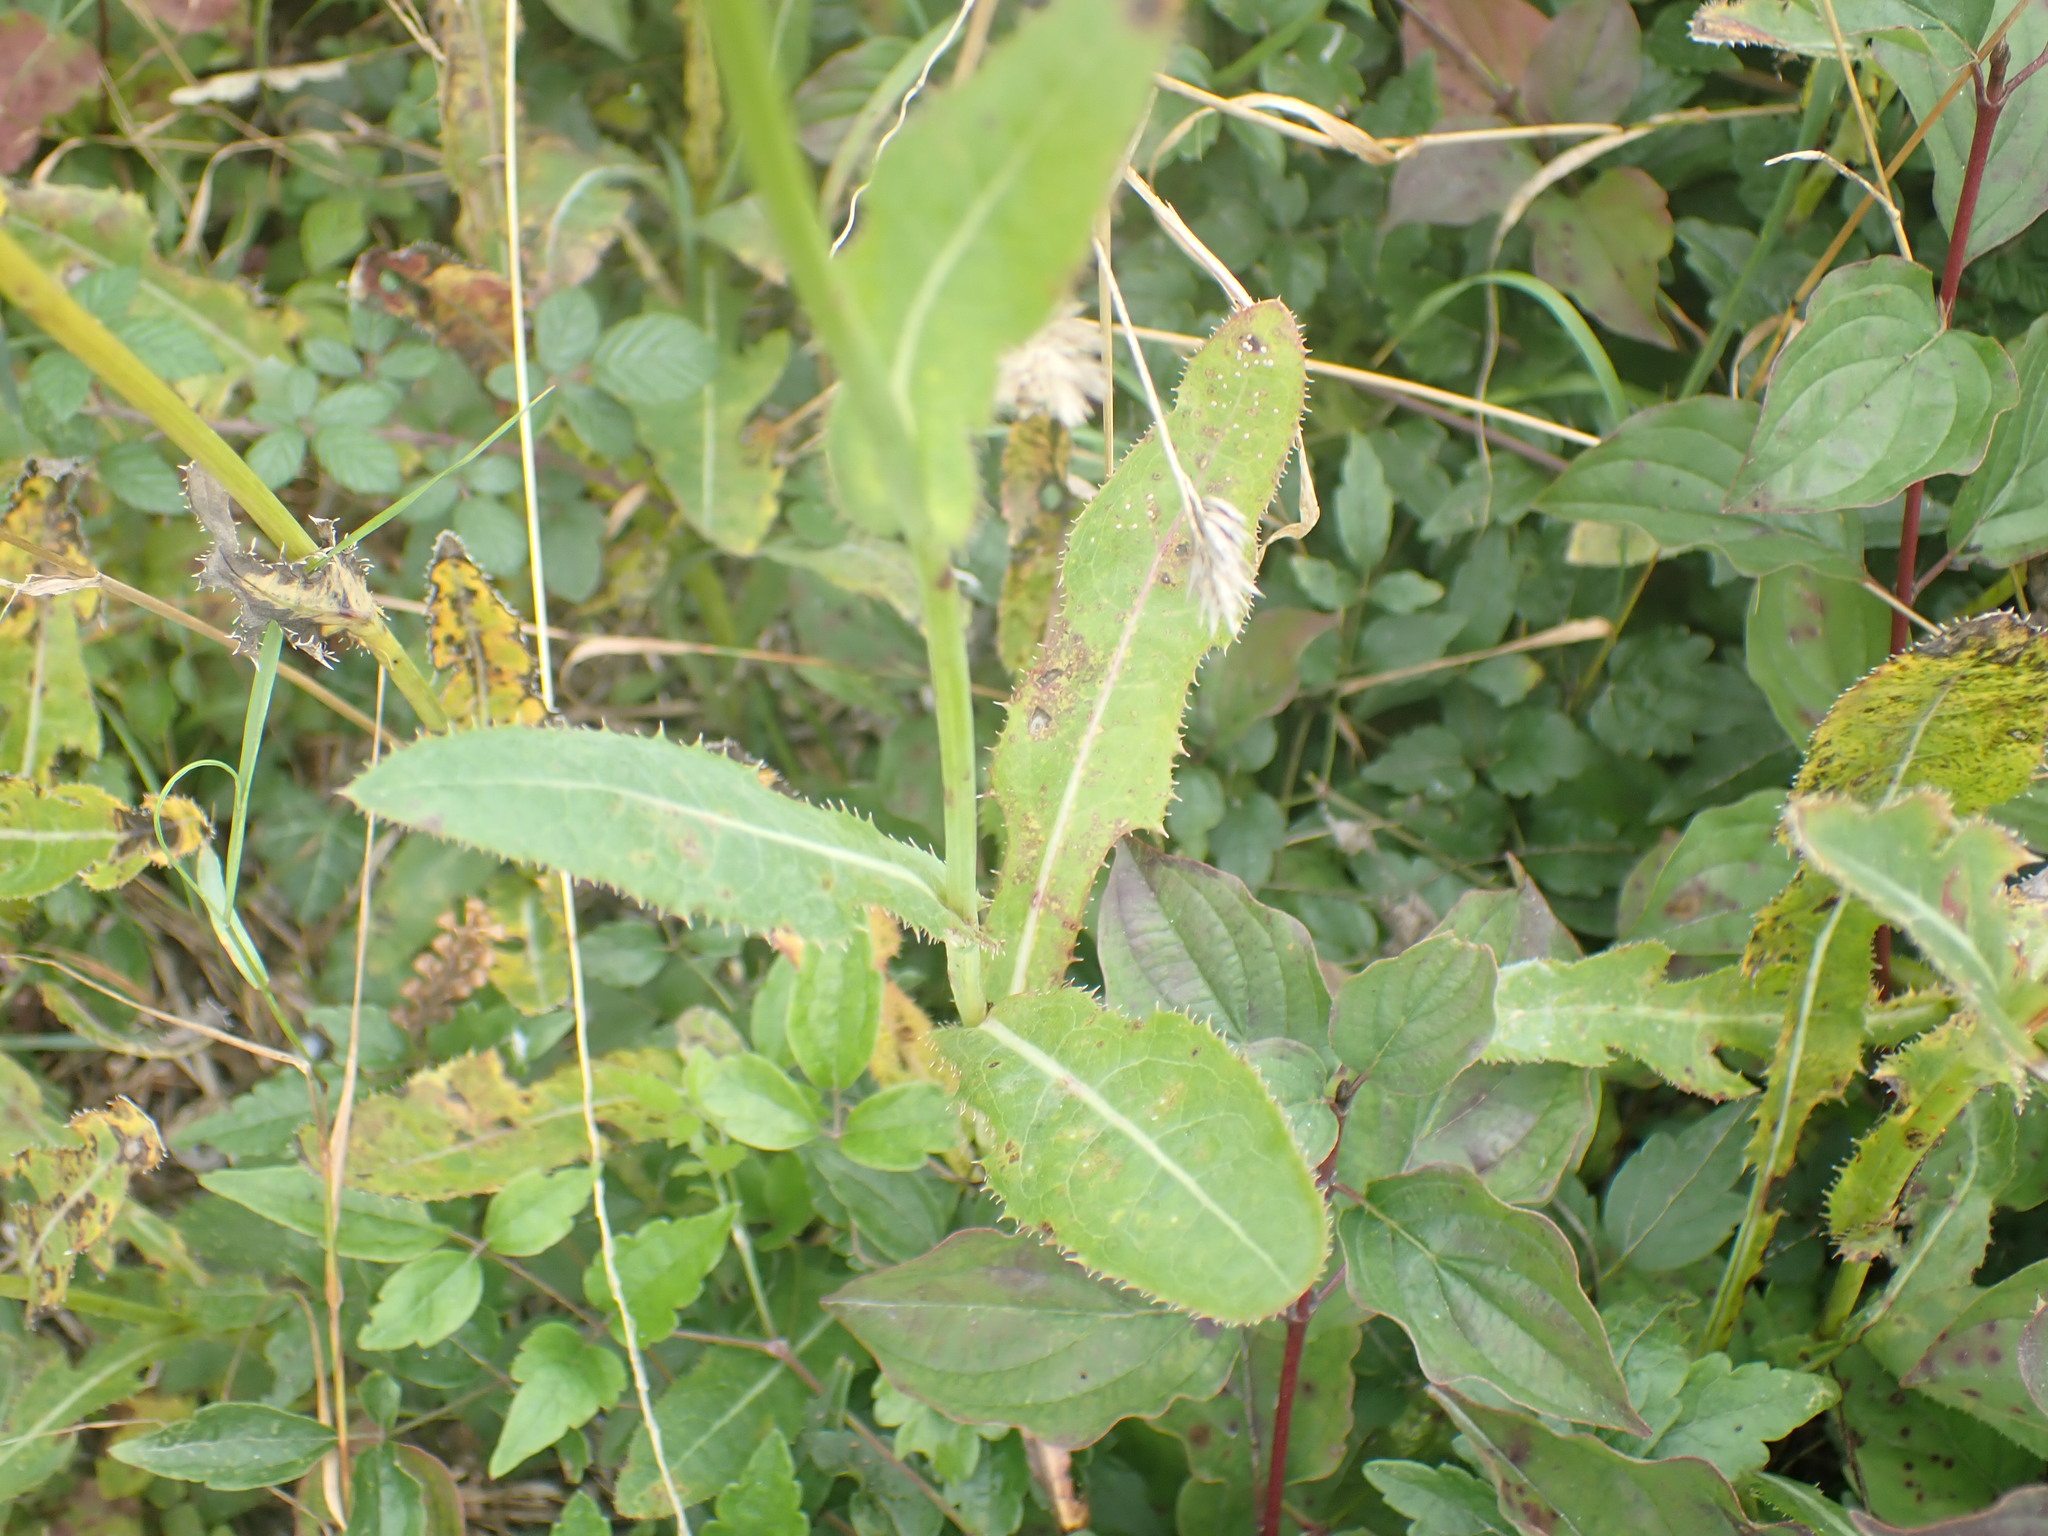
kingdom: Plantae
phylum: Tracheophyta
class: Magnoliopsida
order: Asterales
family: Asteraceae
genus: Sonchus
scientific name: Sonchus arvensis
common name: Perennial sow-thistle
